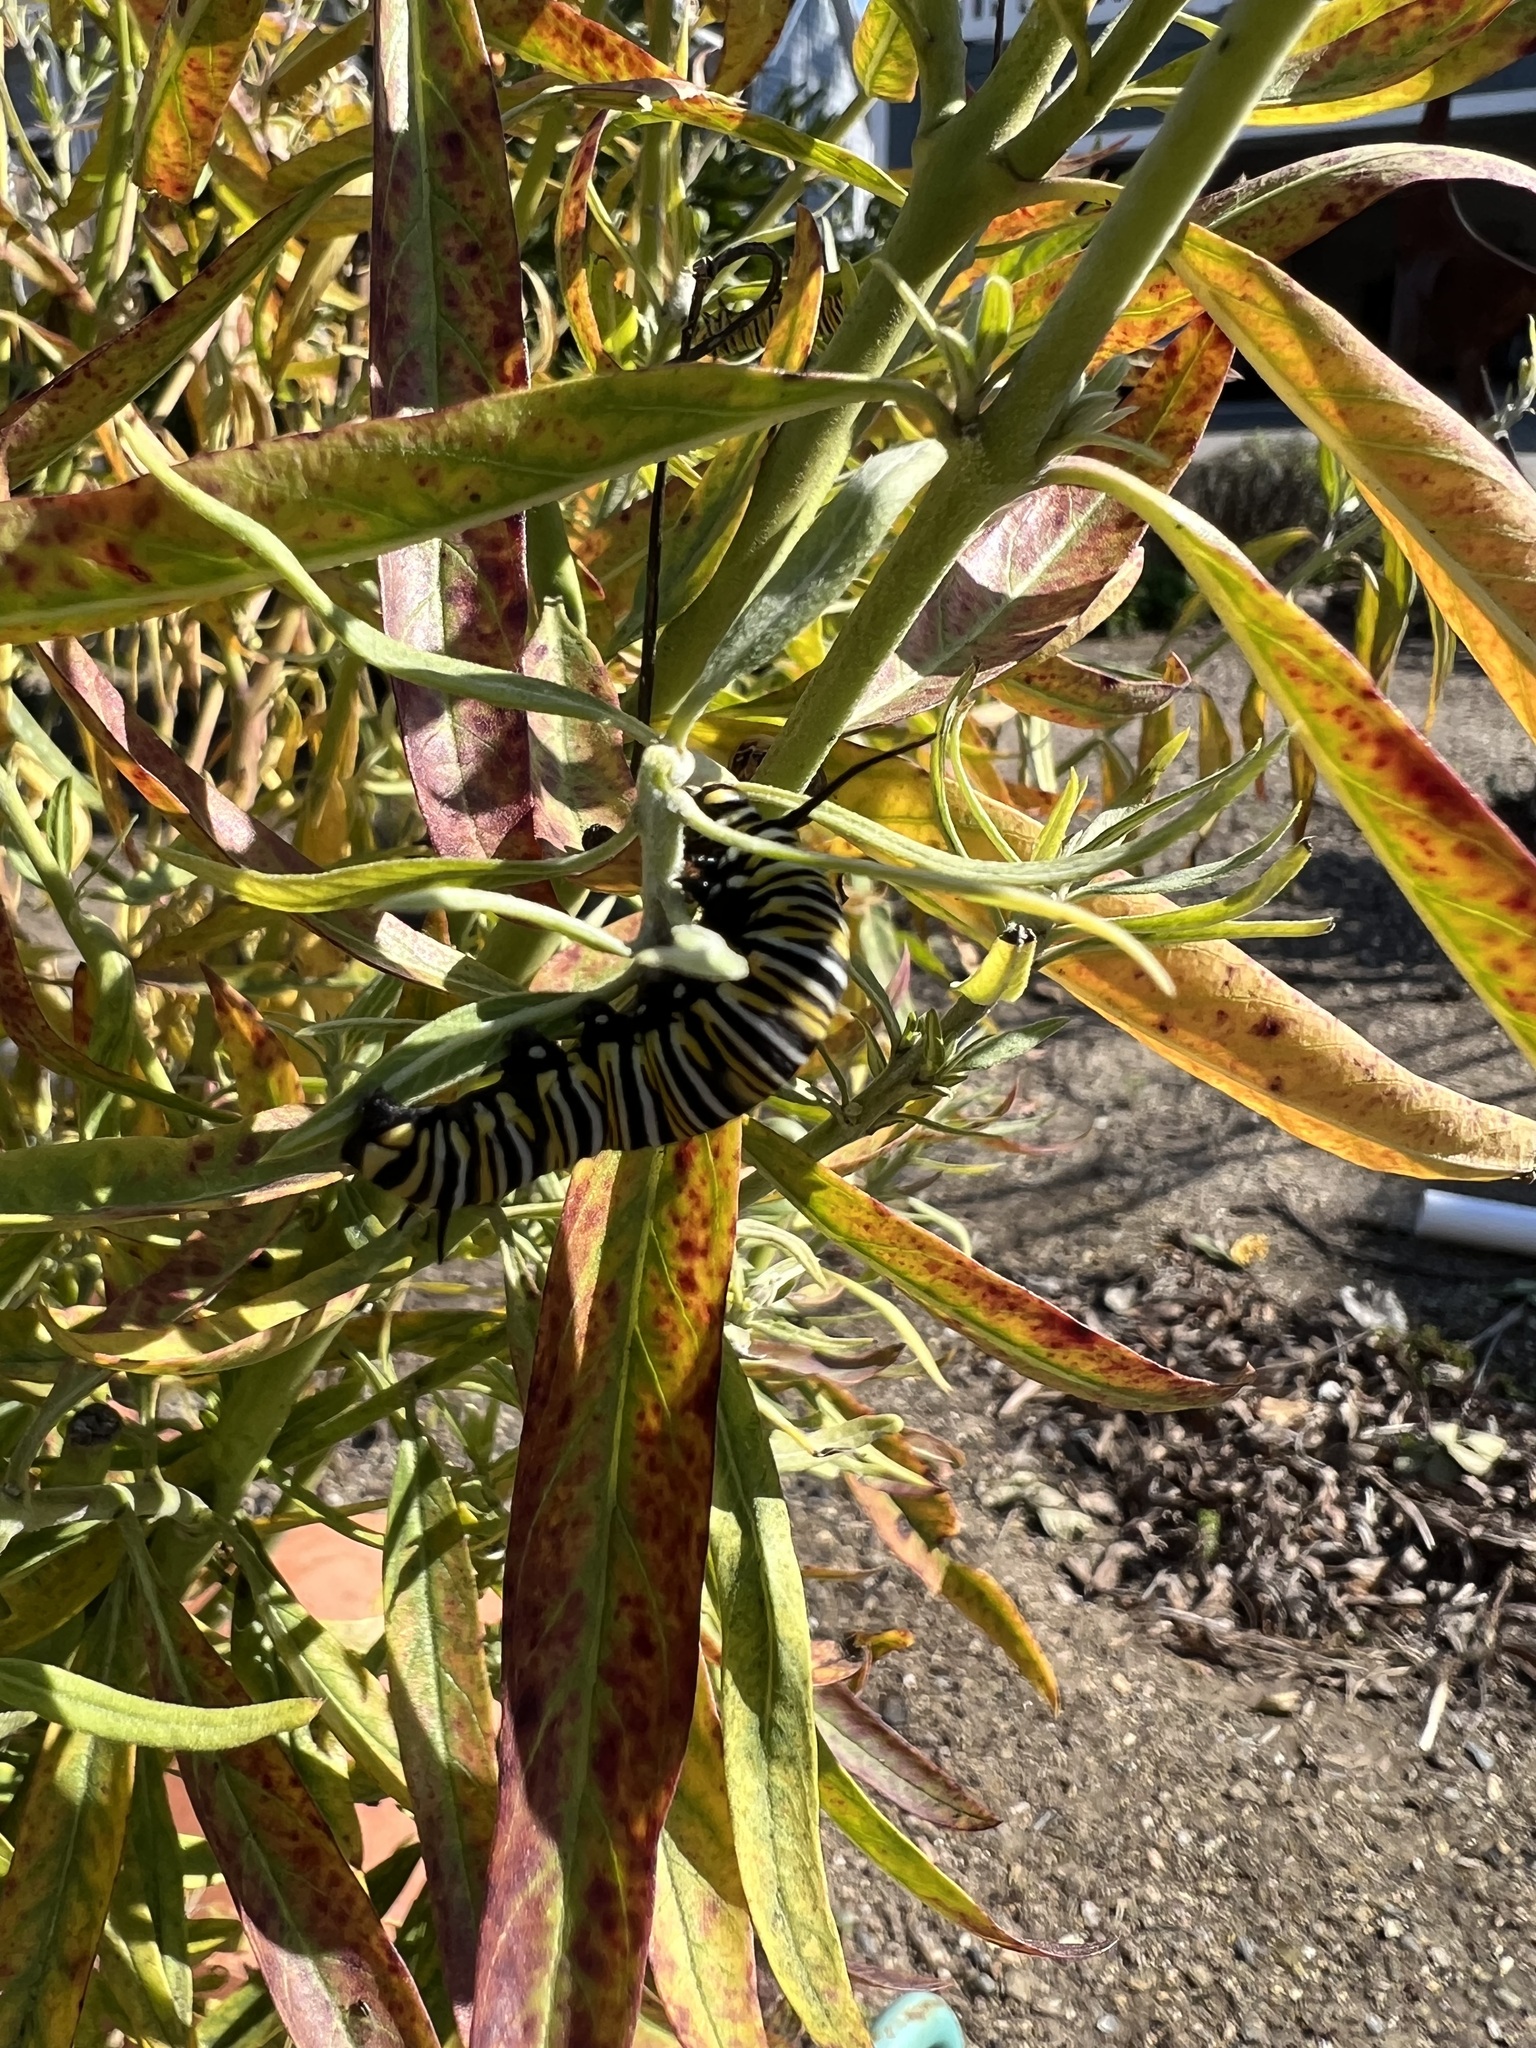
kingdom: Animalia
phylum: Arthropoda
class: Insecta
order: Lepidoptera
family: Nymphalidae
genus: Danaus
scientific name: Danaus plexippus
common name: Monarch
